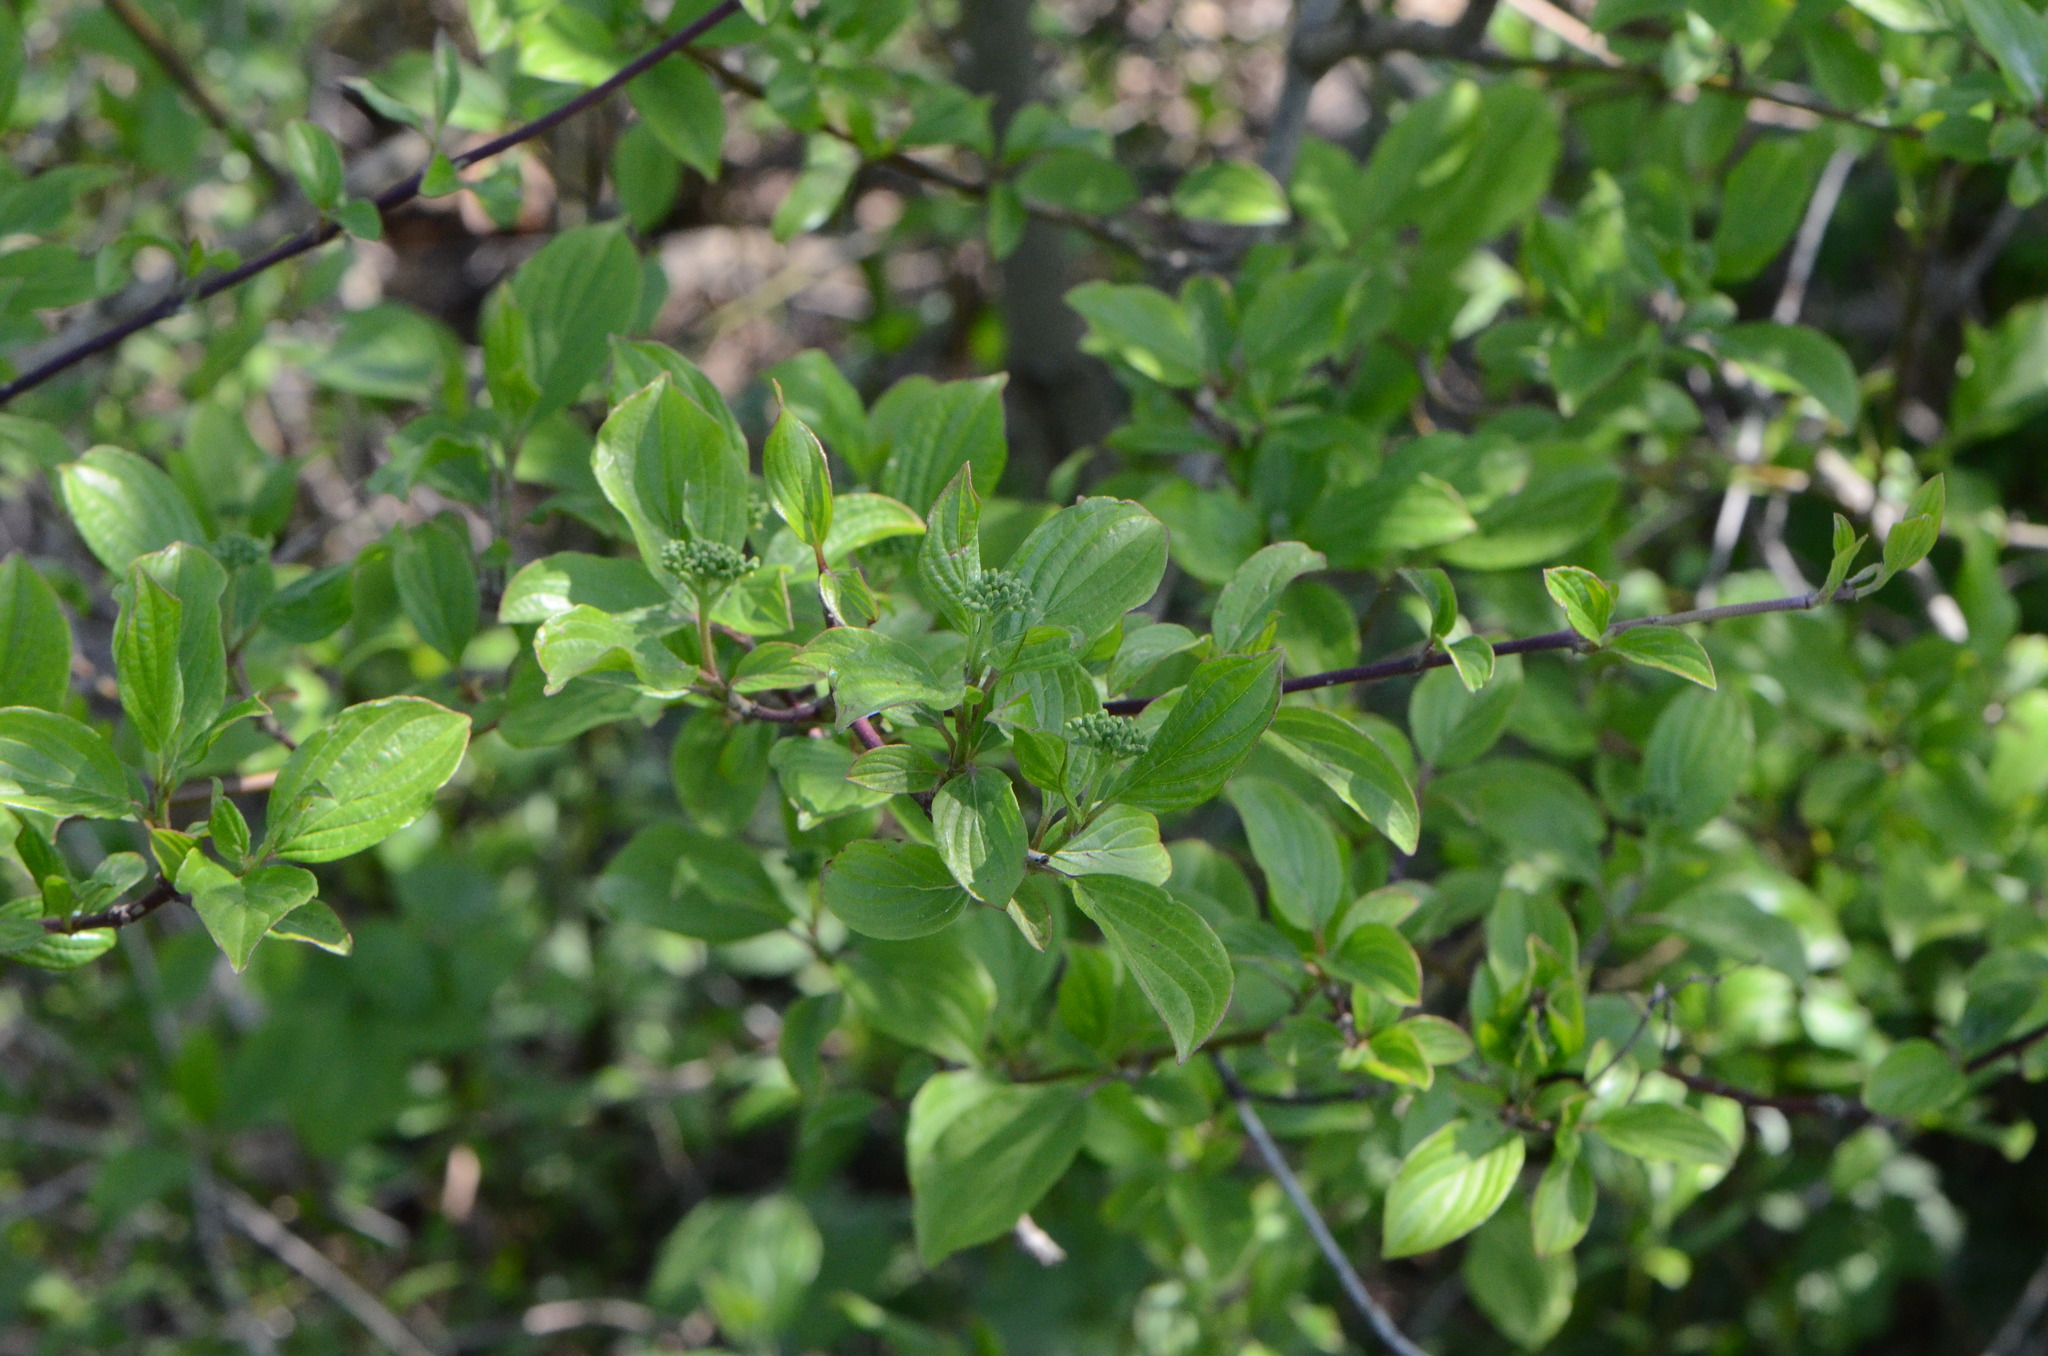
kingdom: Plantae
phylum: Tracheophyta
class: Magnoliopsida
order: Cornales
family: Cornaceae
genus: Cornus
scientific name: Cornus sanguinea
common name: Dogwood
